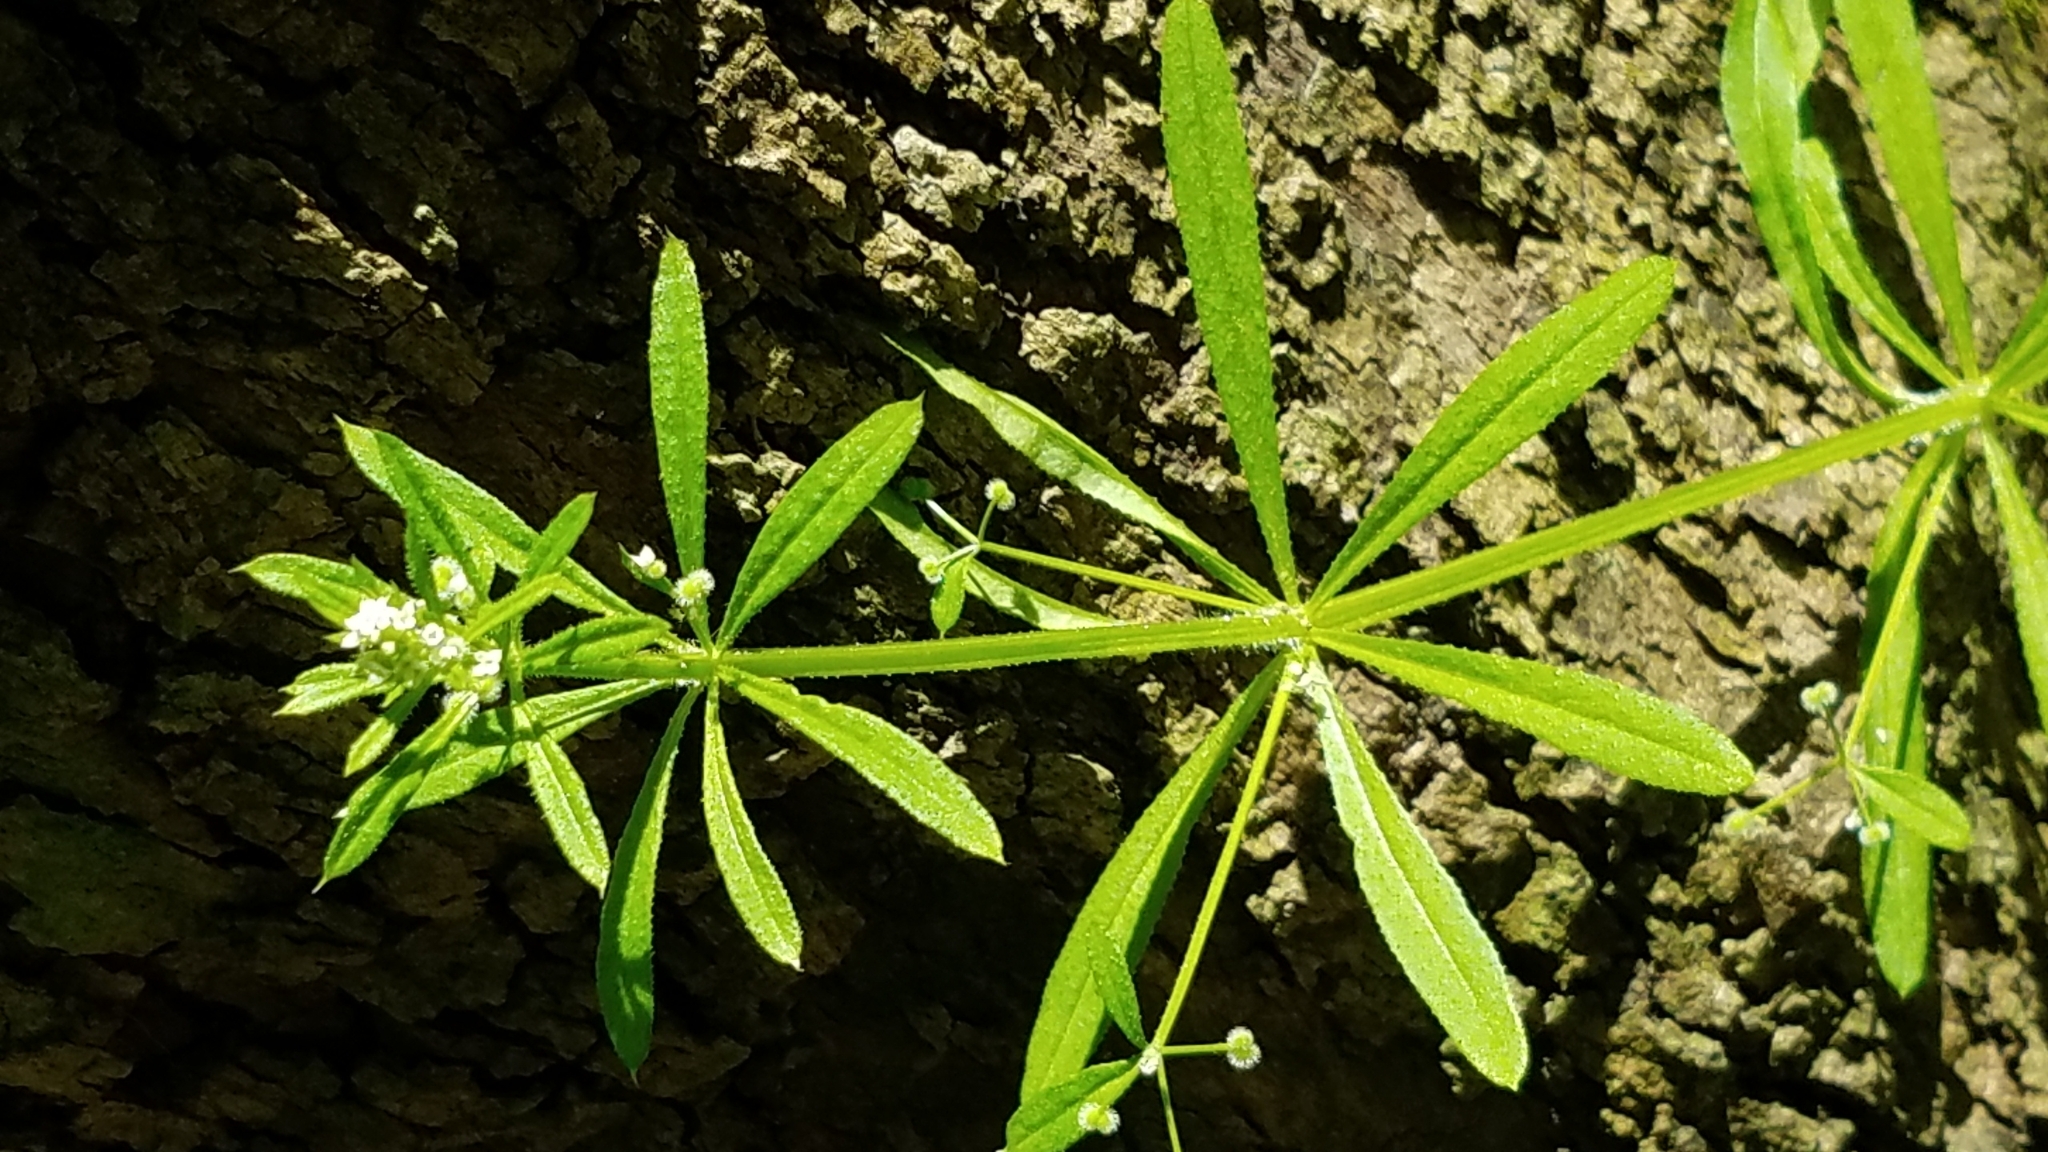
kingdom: Plantae
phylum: Tracheophyta
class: Magnoliopsida
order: Gentianales
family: Rubiaceae
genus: Galium
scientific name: Galium aparine
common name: Cleavers
